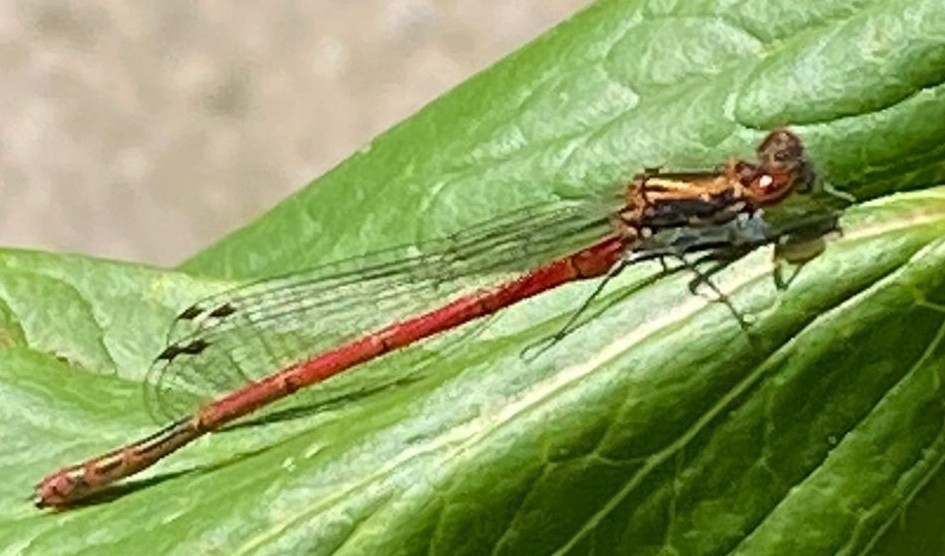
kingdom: Animalia
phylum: Arthropoda
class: Insecta
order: Odonata
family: Coenagrionidae
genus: Pyrrhosoma
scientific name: Pyrrhosoma nymphula
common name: Large red damsel
